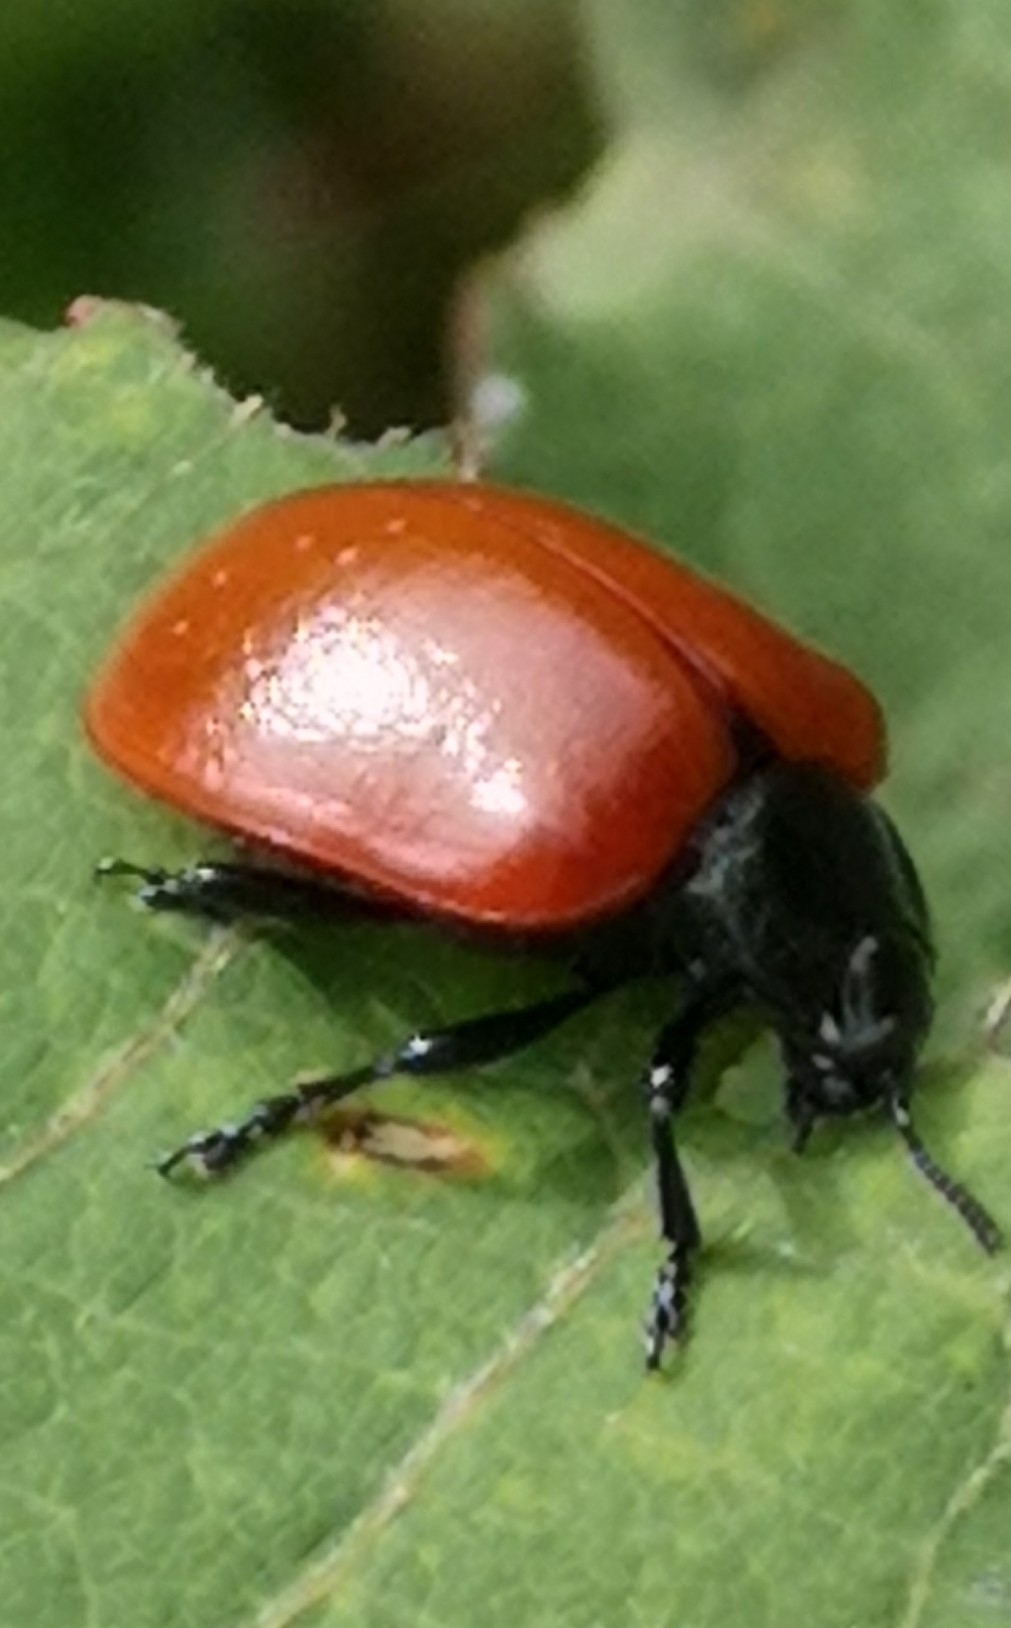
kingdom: Animalia
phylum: Arthropoda
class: Insecta
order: Coleoptera
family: Chrysomelidae
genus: Chrysomela
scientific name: Chrysomela populi
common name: Red poplar leaf beetle
